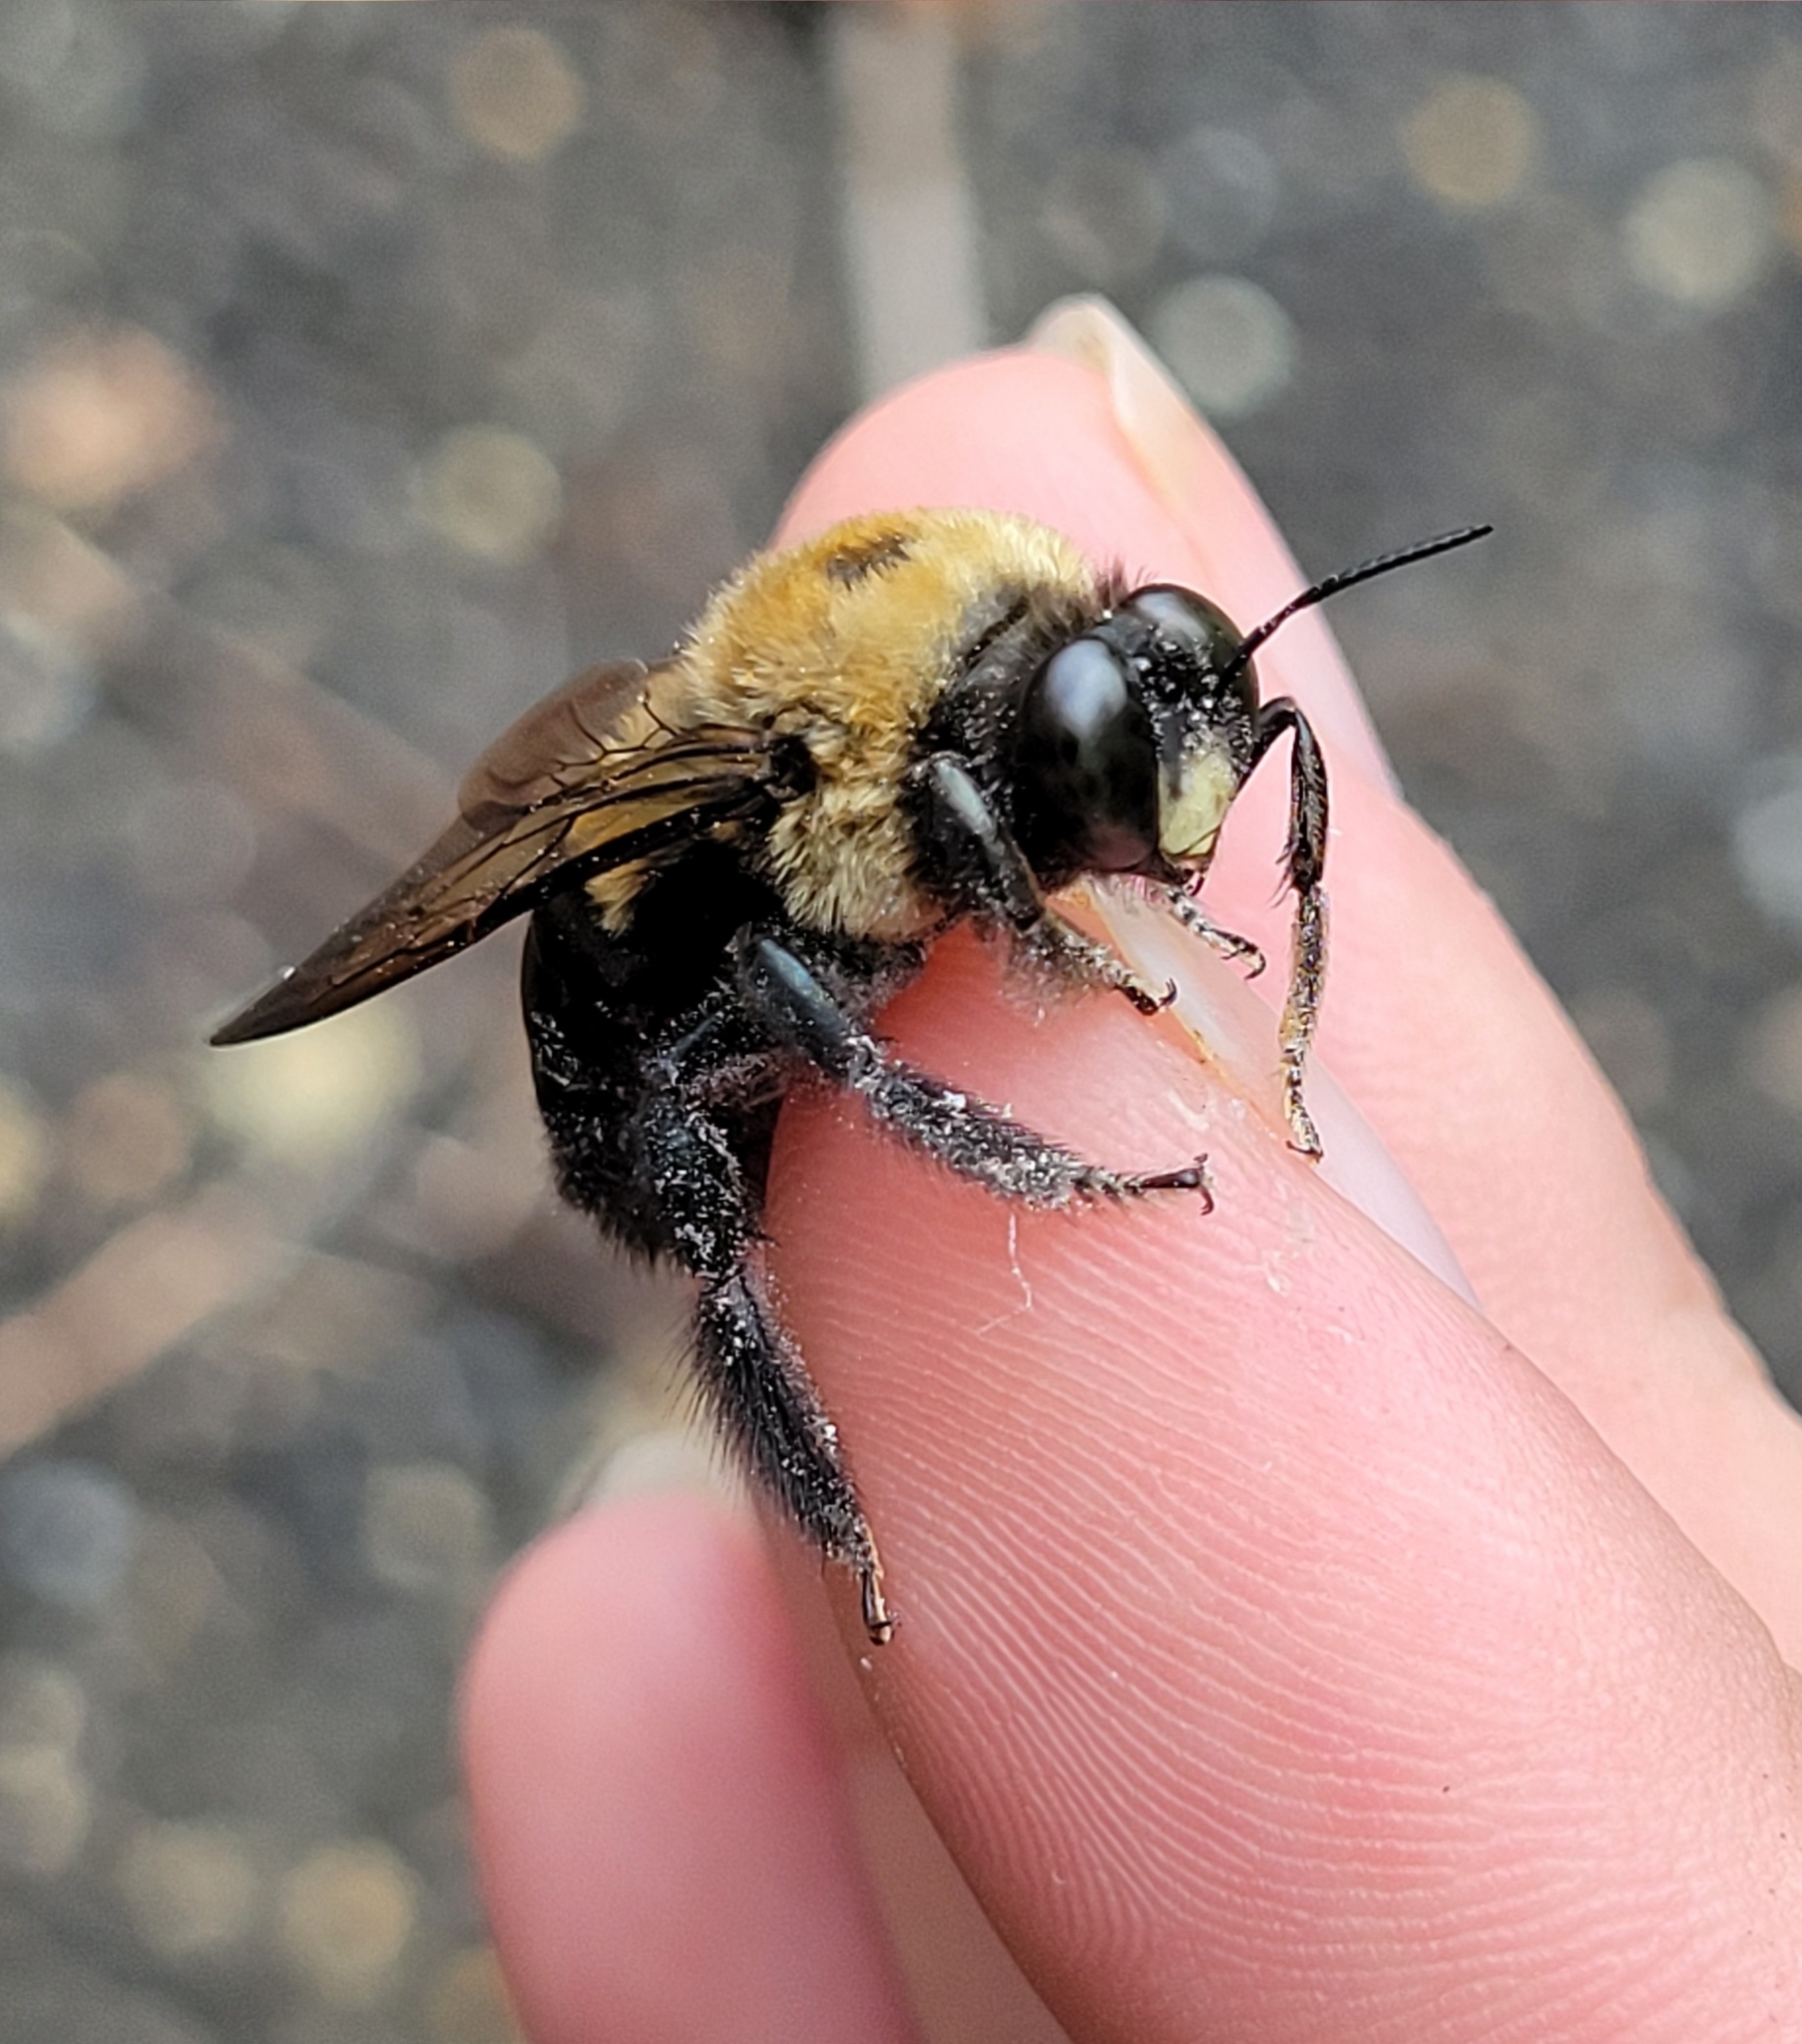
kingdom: Animalia
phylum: Arthropoda
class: Insecta
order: Hymenoptera
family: Apidae
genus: Xylocopa
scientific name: Xylocopa virginica
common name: Carpenter bee
